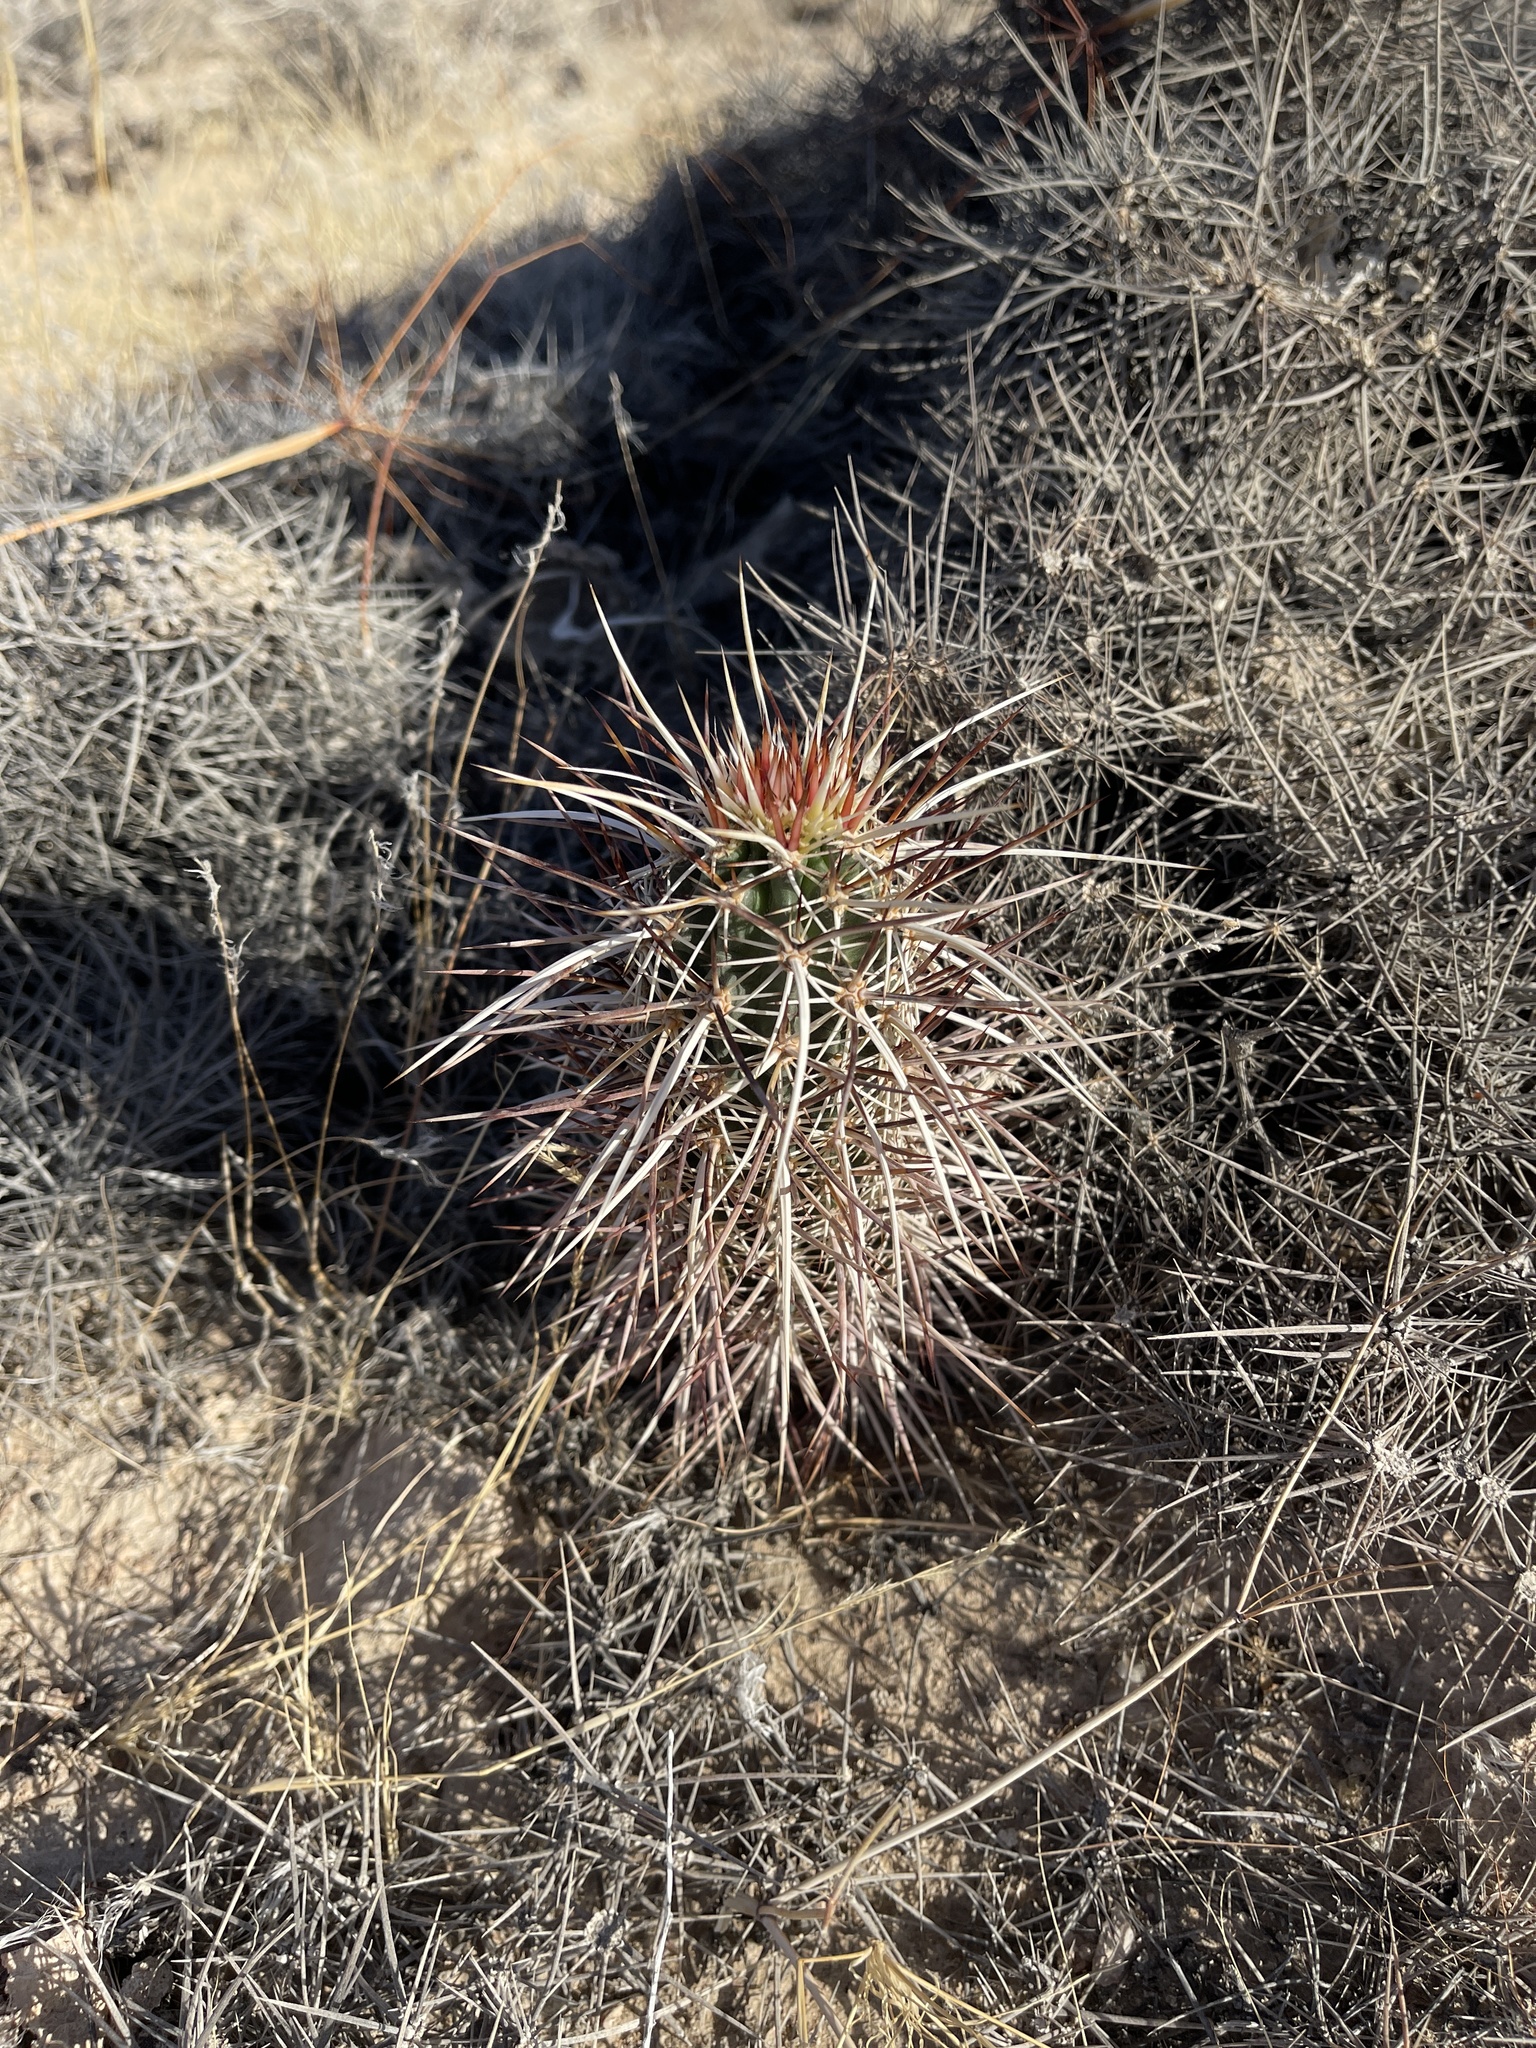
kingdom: Plantae
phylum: Tracheophyta
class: Magnoliopsida
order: Caryophyllales
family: Cactaceae
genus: Echinocereus
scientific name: Echinocereus engelmannii
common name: Engelmann's hedgehog cactus
